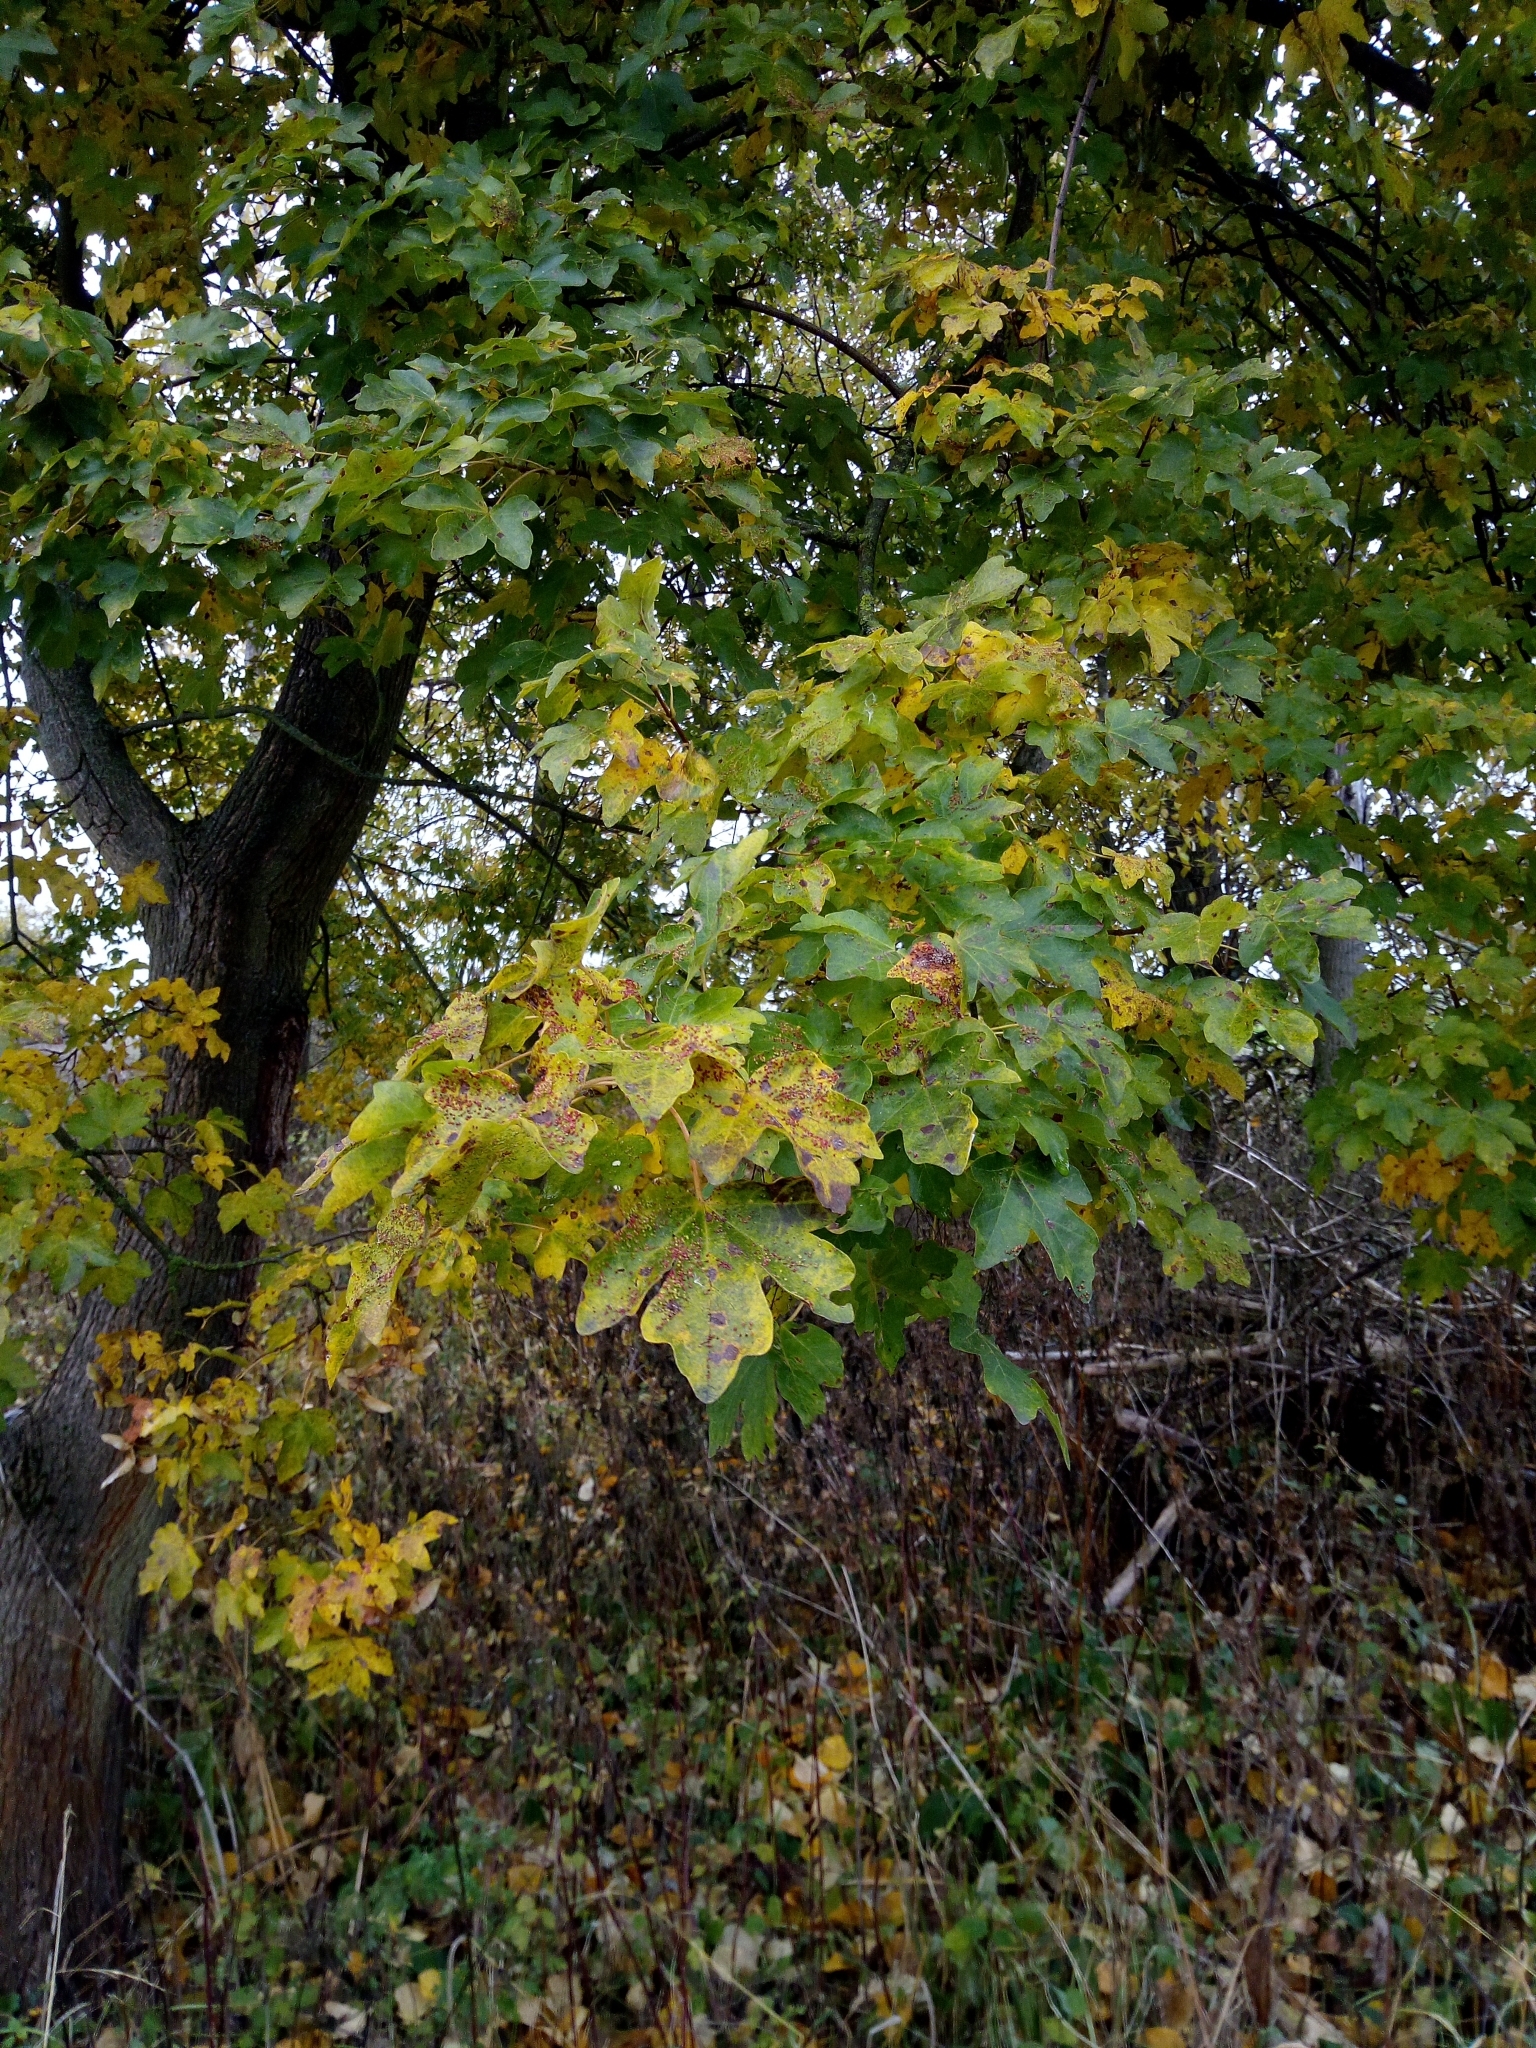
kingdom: Plantae
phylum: Tracheophyta
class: Magnoliopsida
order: Sapindales
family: Sapindaceae
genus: Acer
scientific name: Acer campestre
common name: Field maple
